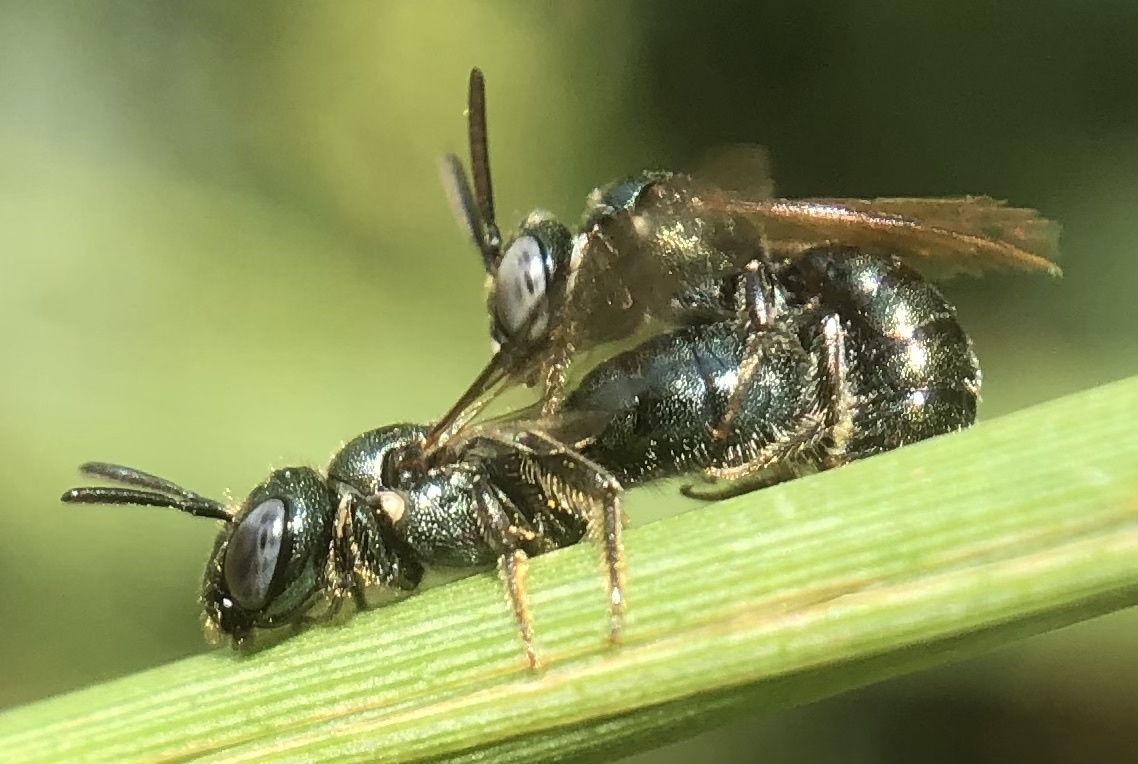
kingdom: Animalia
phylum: Arthropoda
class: Insecta
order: Hymenoptera
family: Apidae
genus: Ceratina
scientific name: Ceratina strenua
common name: Nimble carpenter bee
